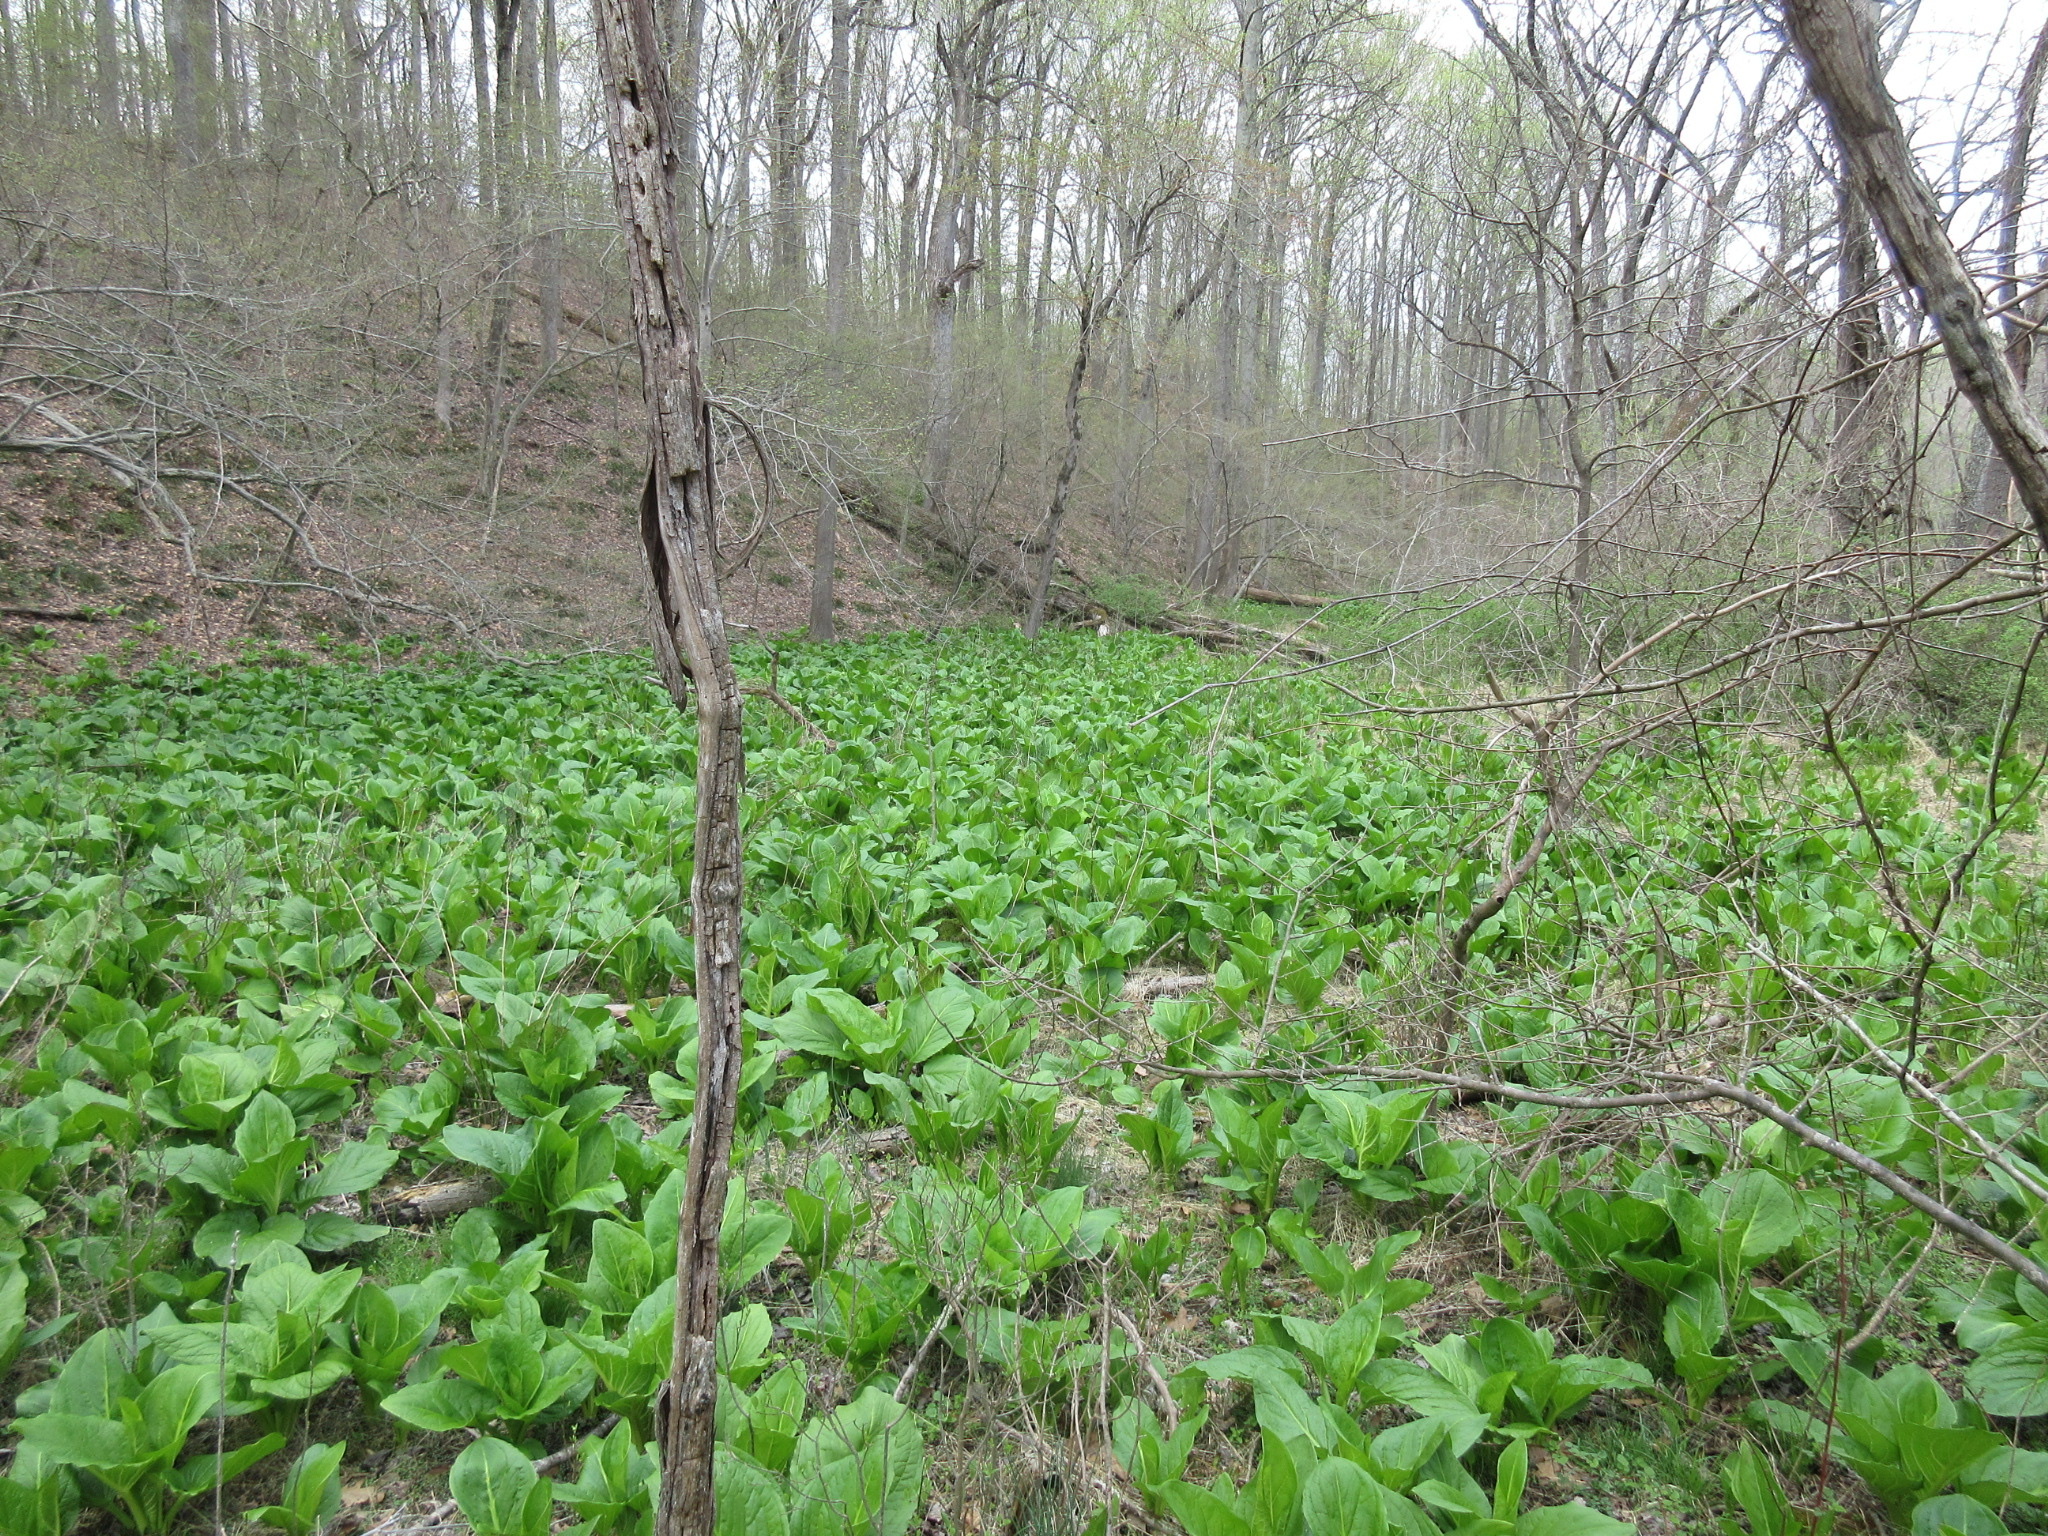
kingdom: Plantae
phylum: Tracheophyta
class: Liliopsida
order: Alismatales
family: Araceae
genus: Symplocarpus
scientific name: Symplocarpus foetidus
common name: Eastern skunk cabbage
